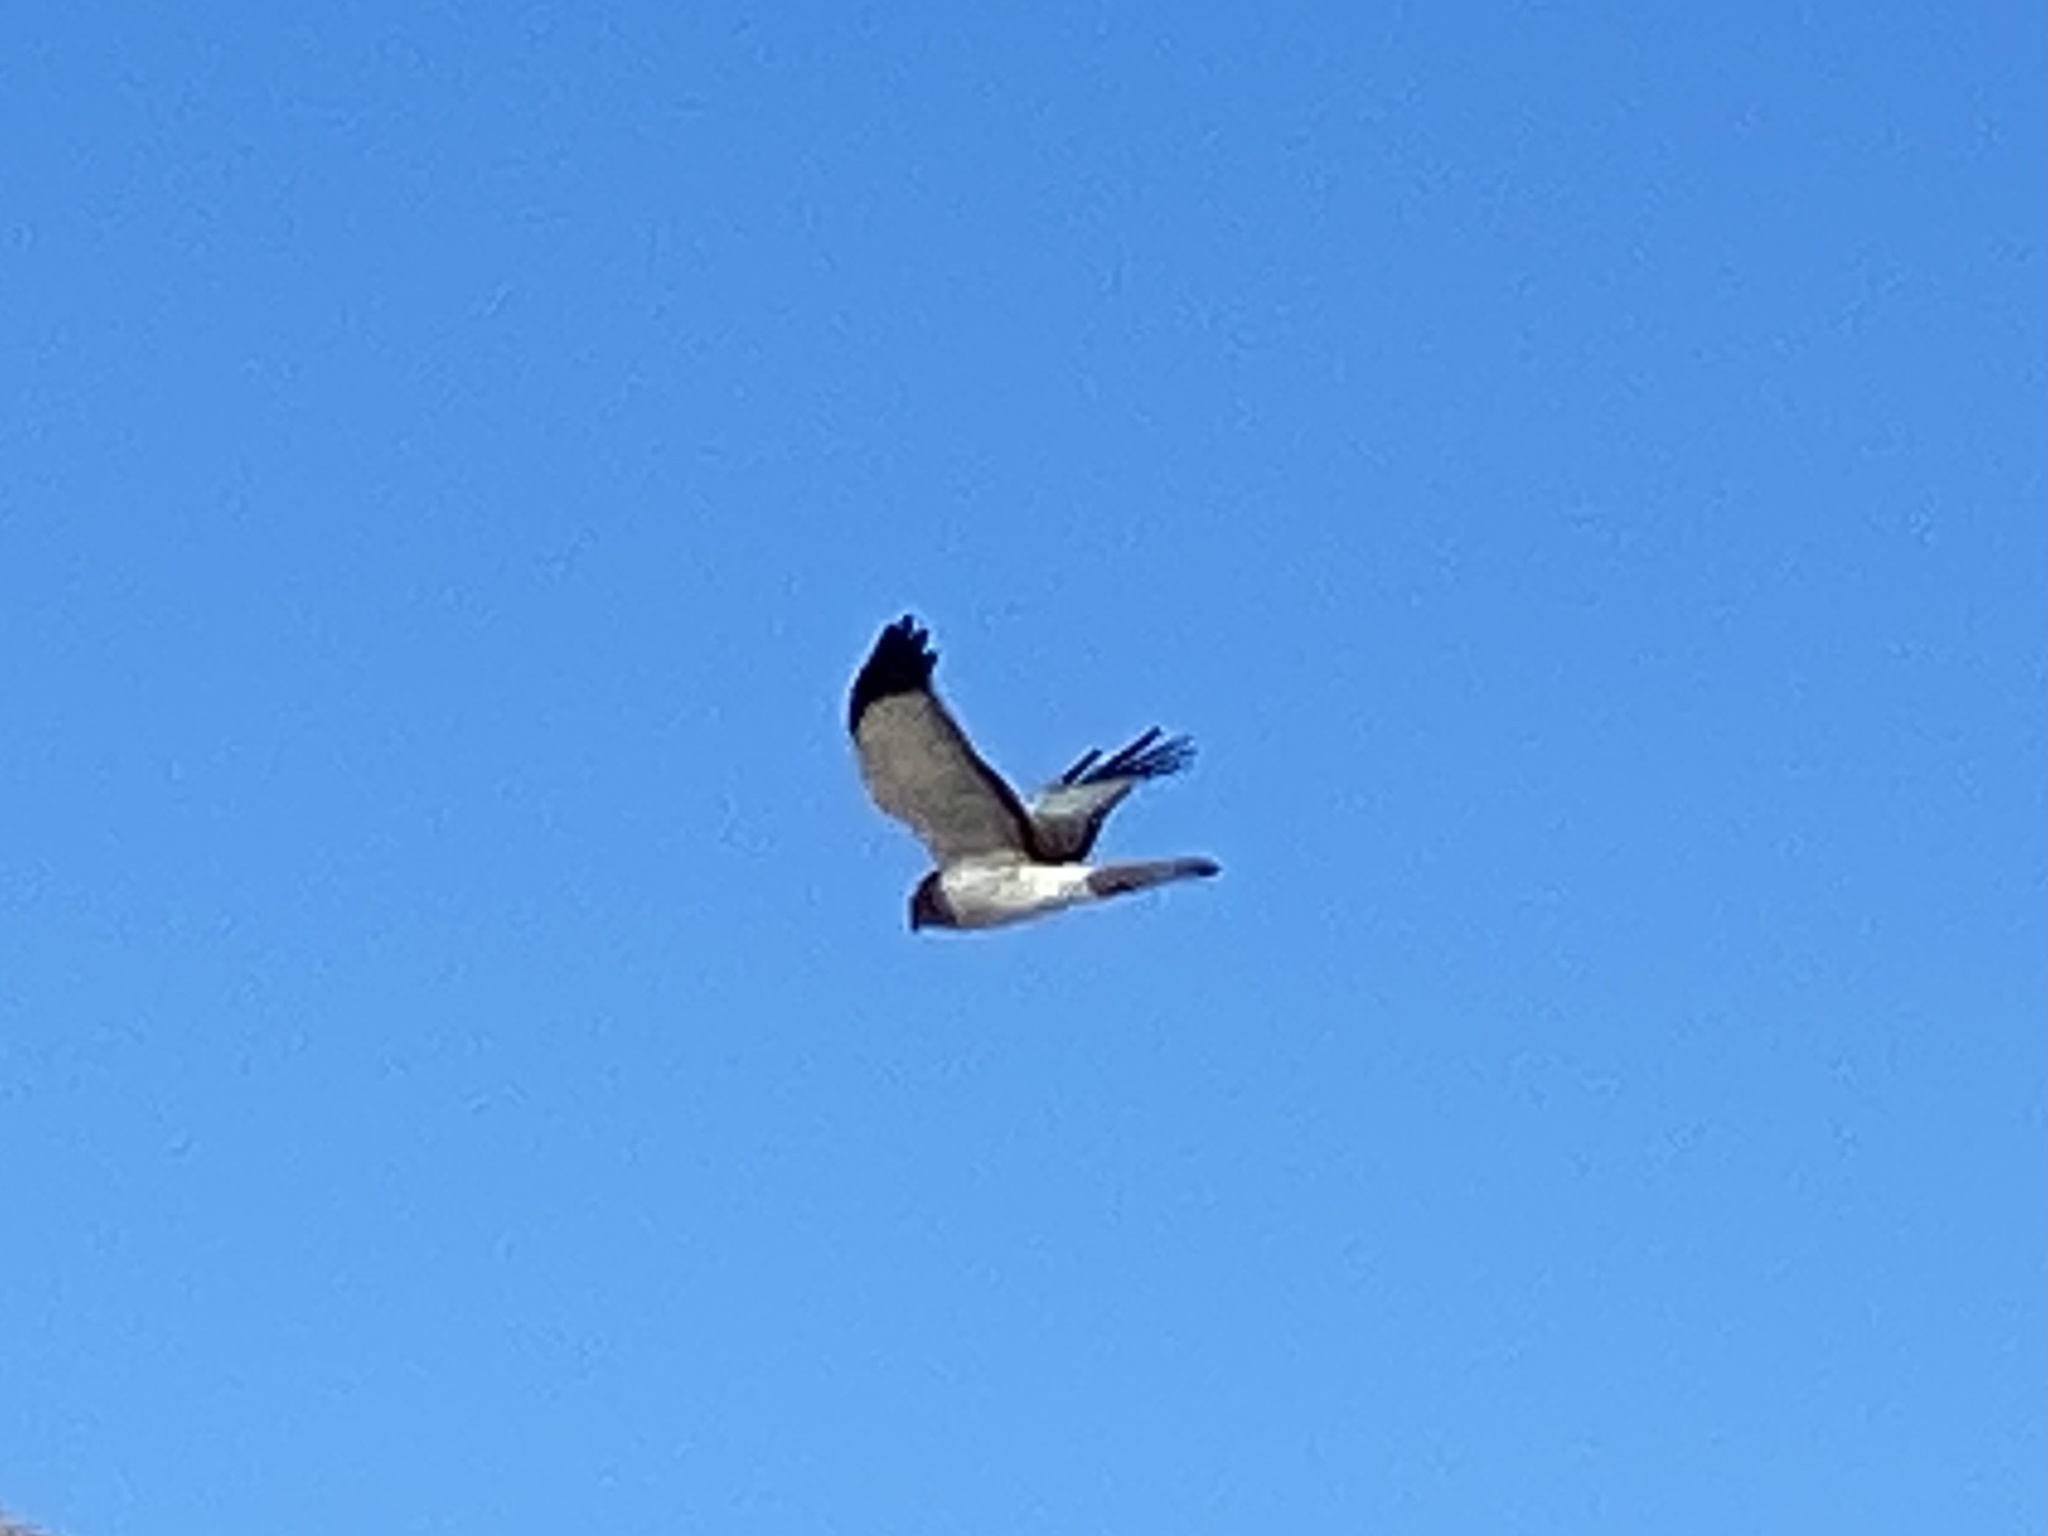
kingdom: Animalia
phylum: Chordata
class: Aves
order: Accipitriformes
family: Accipitridae
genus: Circus
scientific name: Circus cyaneus
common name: Hen harrier
